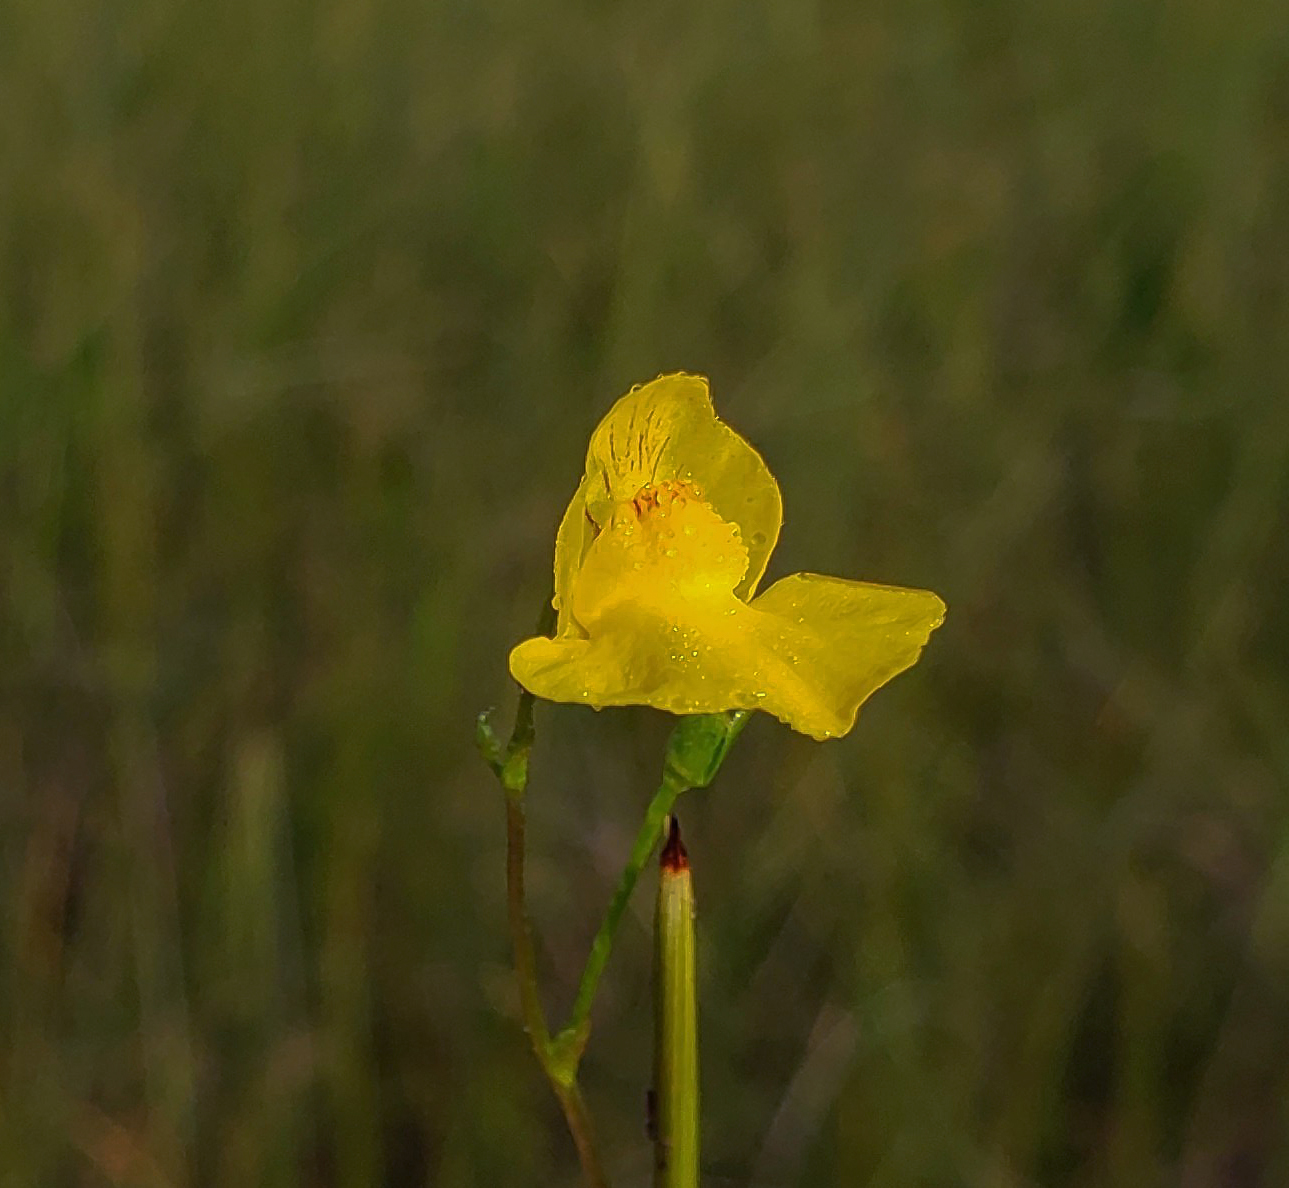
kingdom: Plantae
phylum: Tracheophyta
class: Magnoliopsida
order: Lamiales
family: Lentibulariaceae
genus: Utricularia
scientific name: Utricularia intermedia
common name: Intermediate bladderwort
